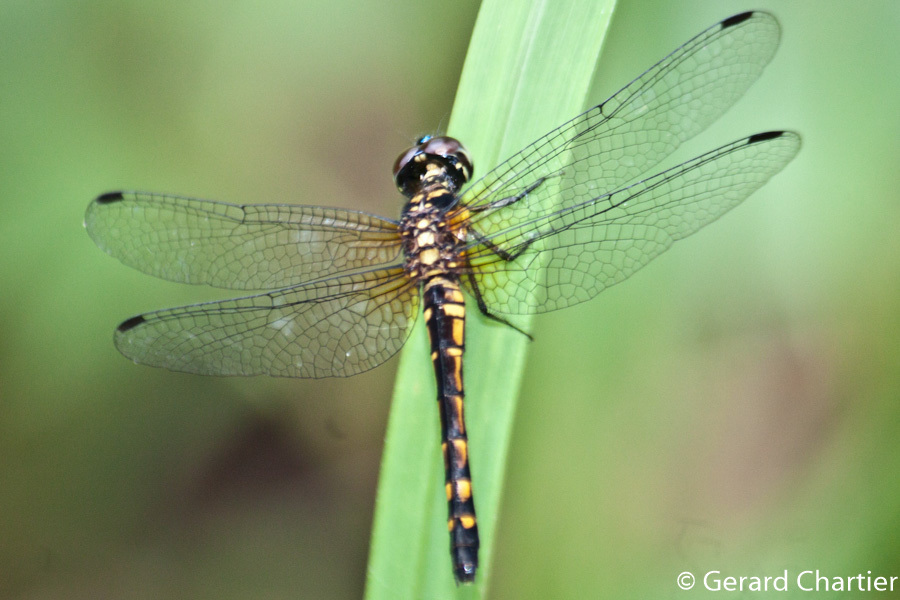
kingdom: Animalia
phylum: Arthropoda
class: Insecta
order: Odonata
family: Libellulidae
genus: Amphithemis
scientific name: Amphithemis curvistyla
